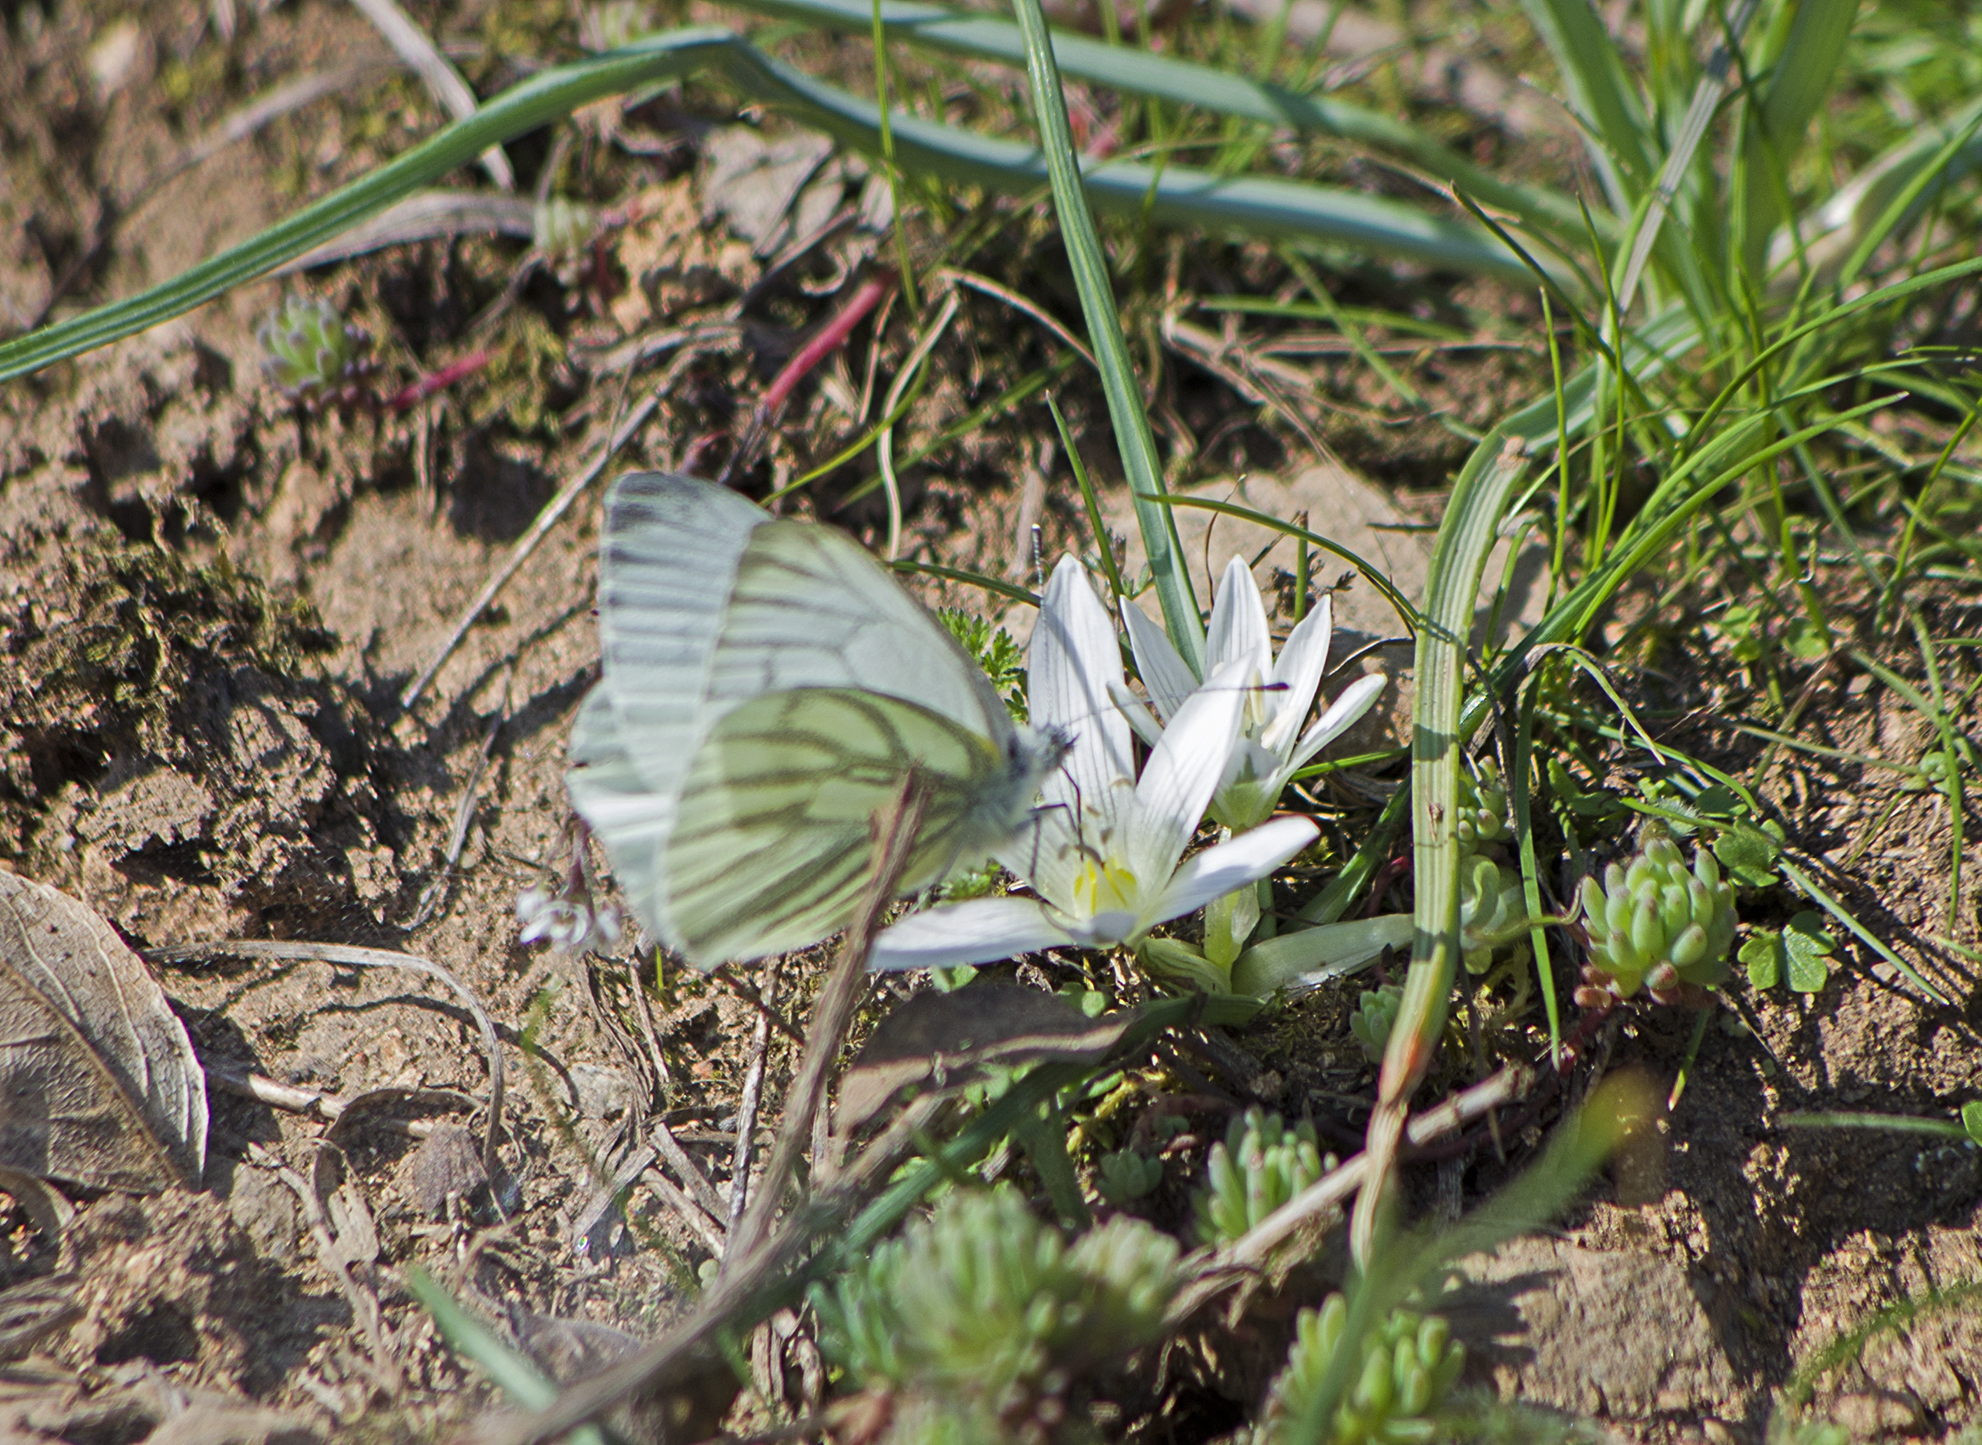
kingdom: Animalia
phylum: Arthropoda
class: Insecta
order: Lepidoptera
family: Pieridae
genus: Pieris
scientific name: Pieris napi
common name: Green-veined white
